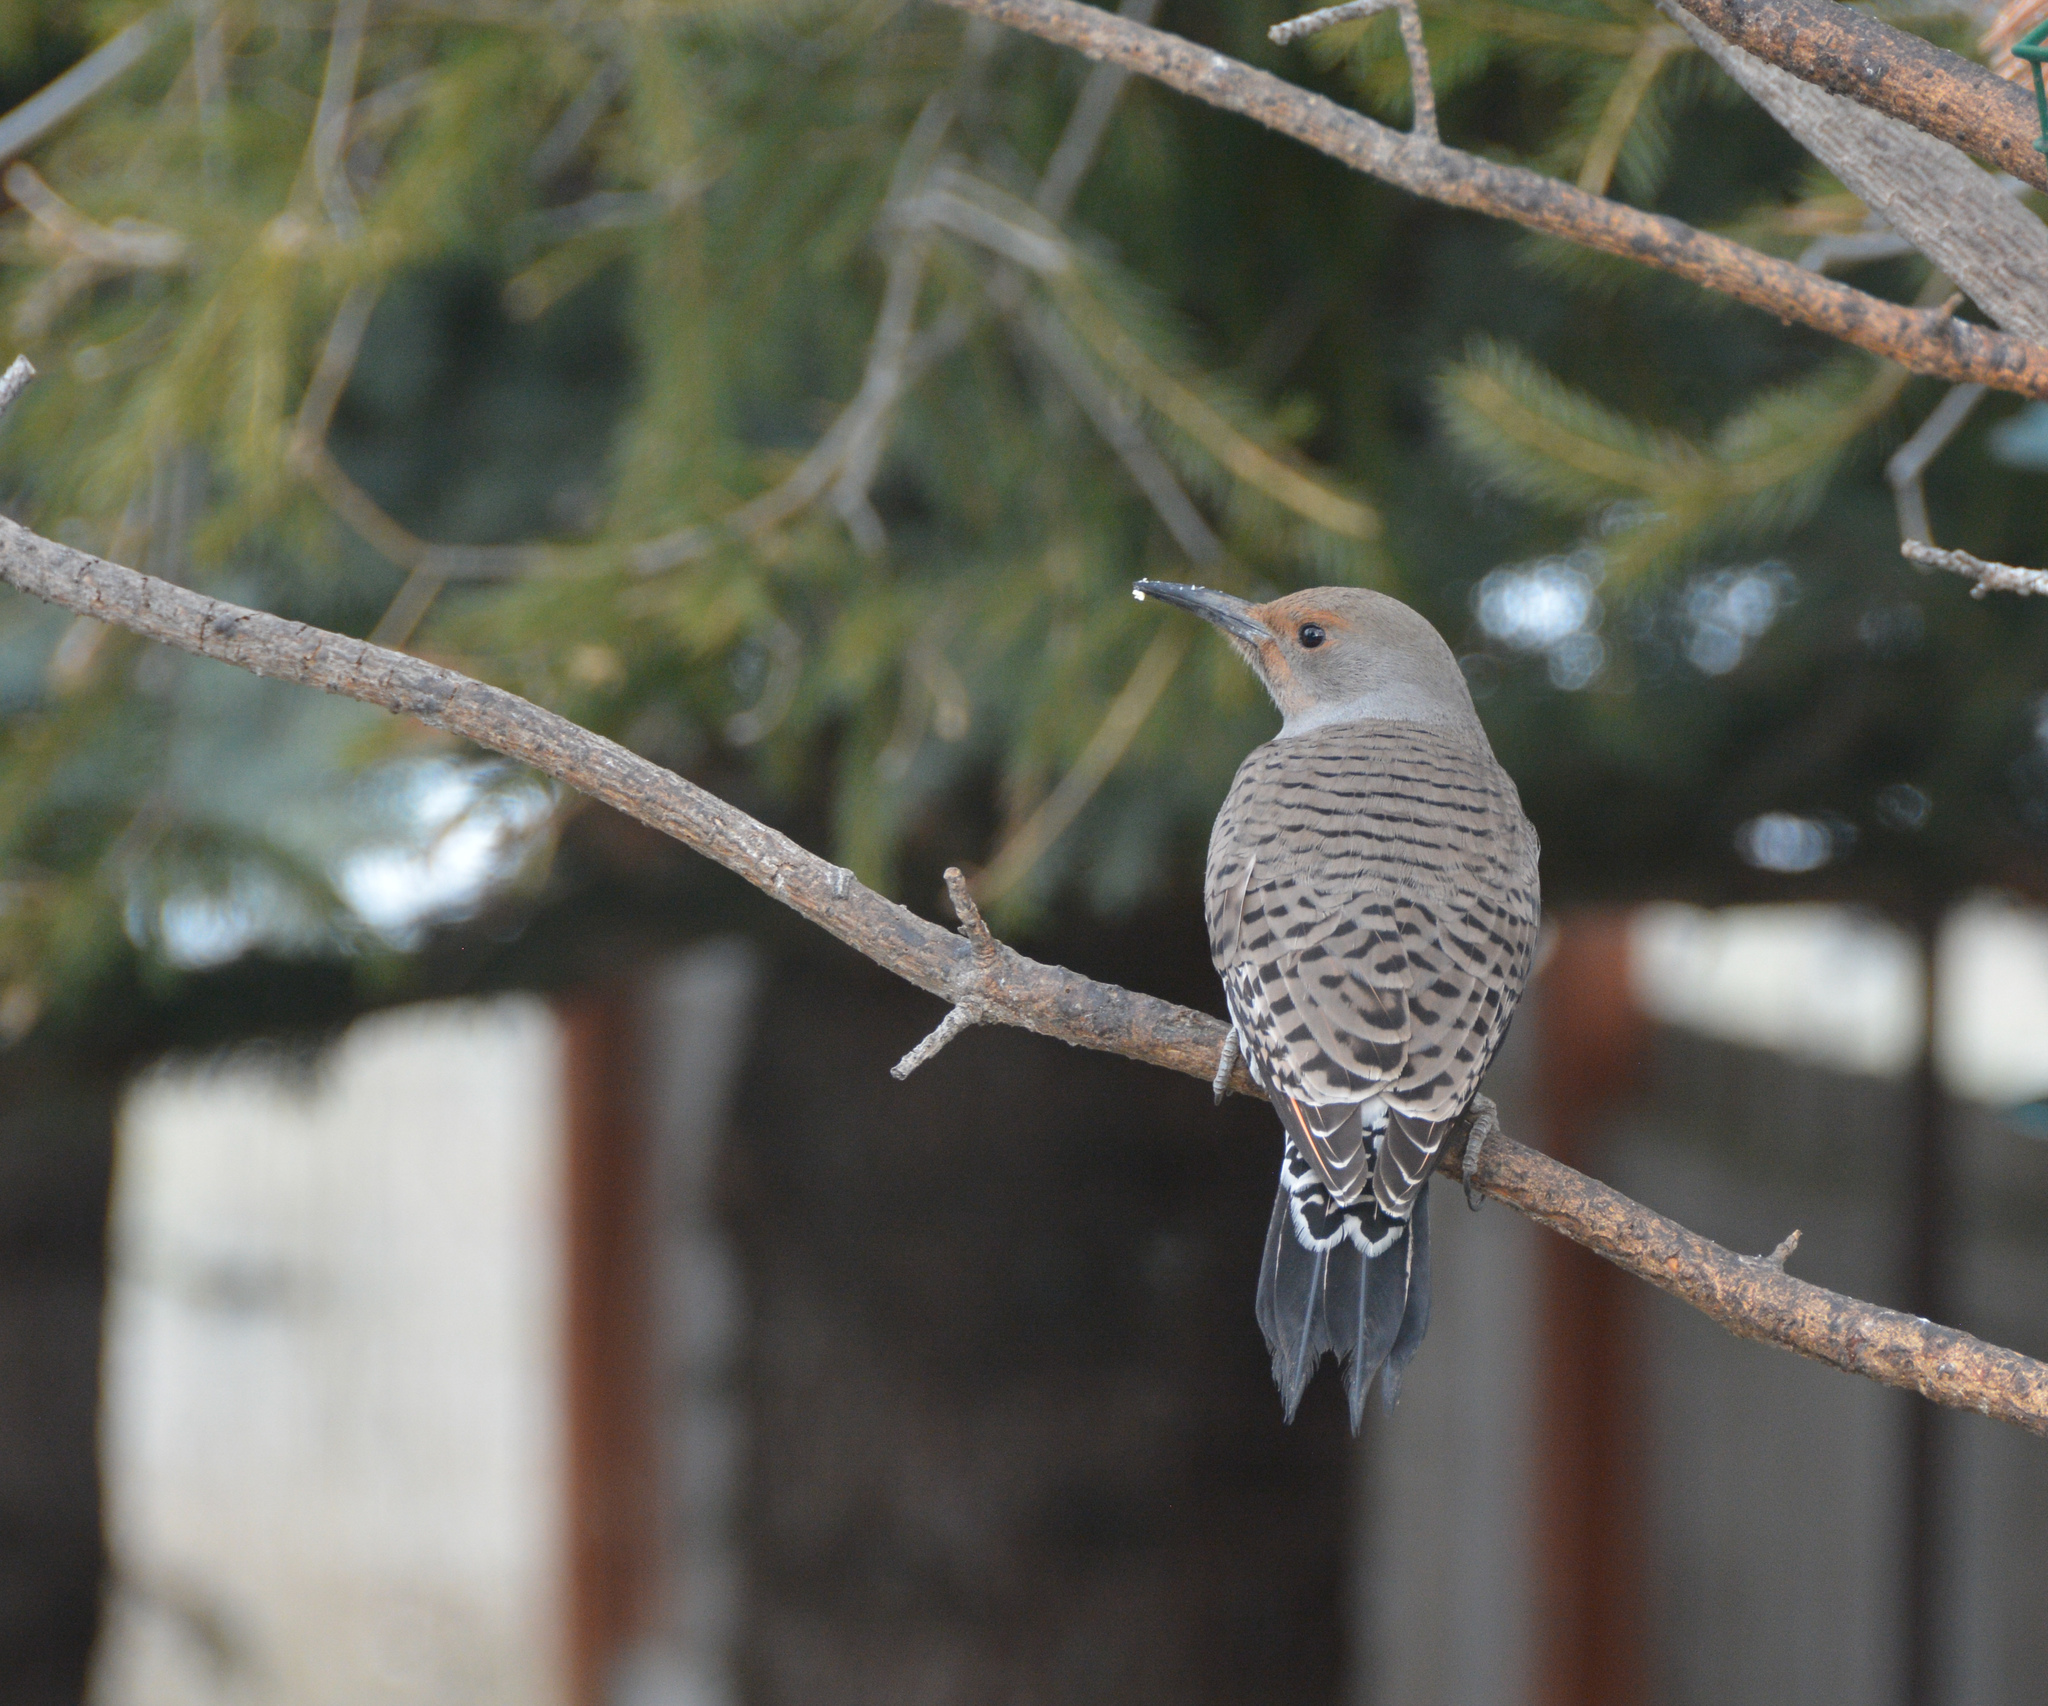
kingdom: Animalia
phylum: Chordata
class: Aves
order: Piciformes
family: Picidae
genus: Colaptes
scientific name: Colaptes auratus
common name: Northern flicker
